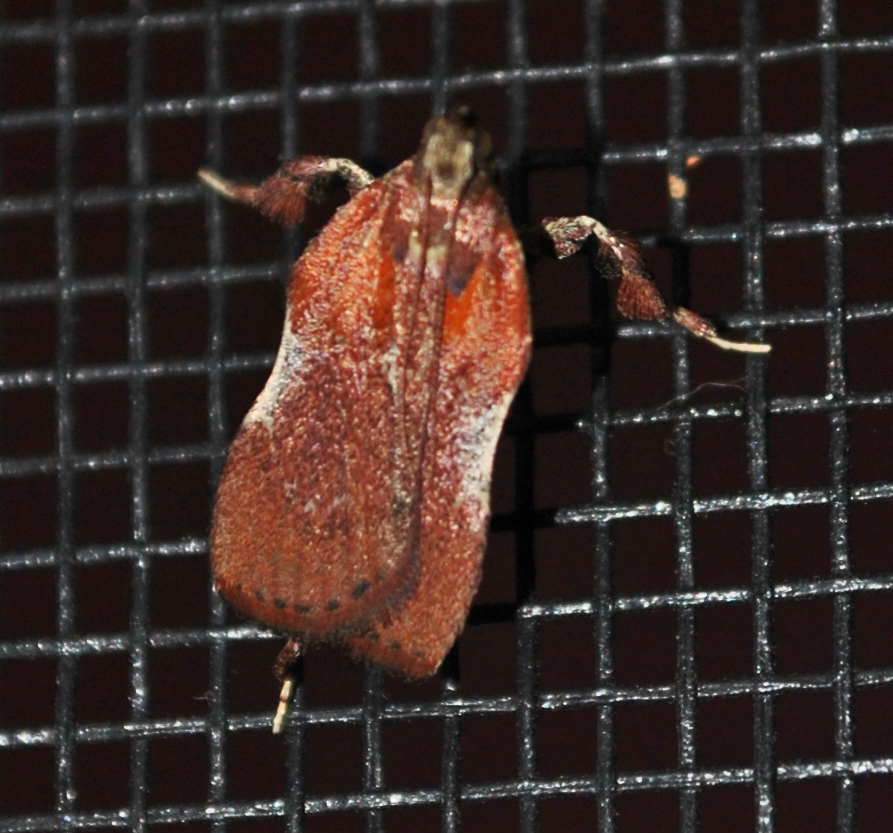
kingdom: Animalia
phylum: Arthropoda
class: Insecta
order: Lepidoptera
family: Pyralidae
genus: Galasa
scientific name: Galasa nigrinodis
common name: Boxwood leaftier moth
